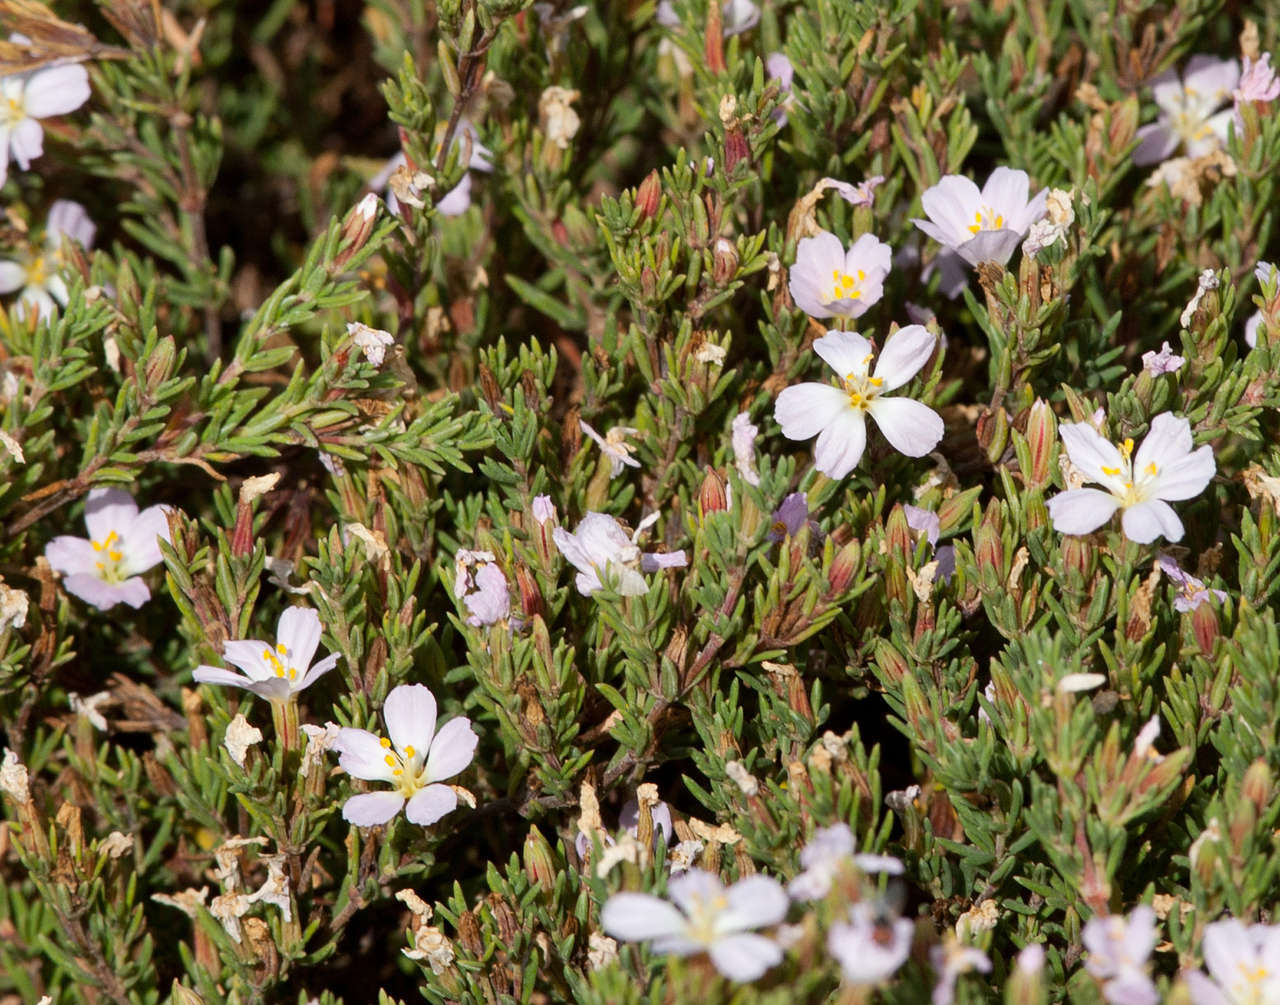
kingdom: Plantae
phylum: Tracheophyta
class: Magnoliopsida
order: Caryophyllales
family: Frankeniaceae
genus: Frankenia
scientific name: Frankenia pauciflora
